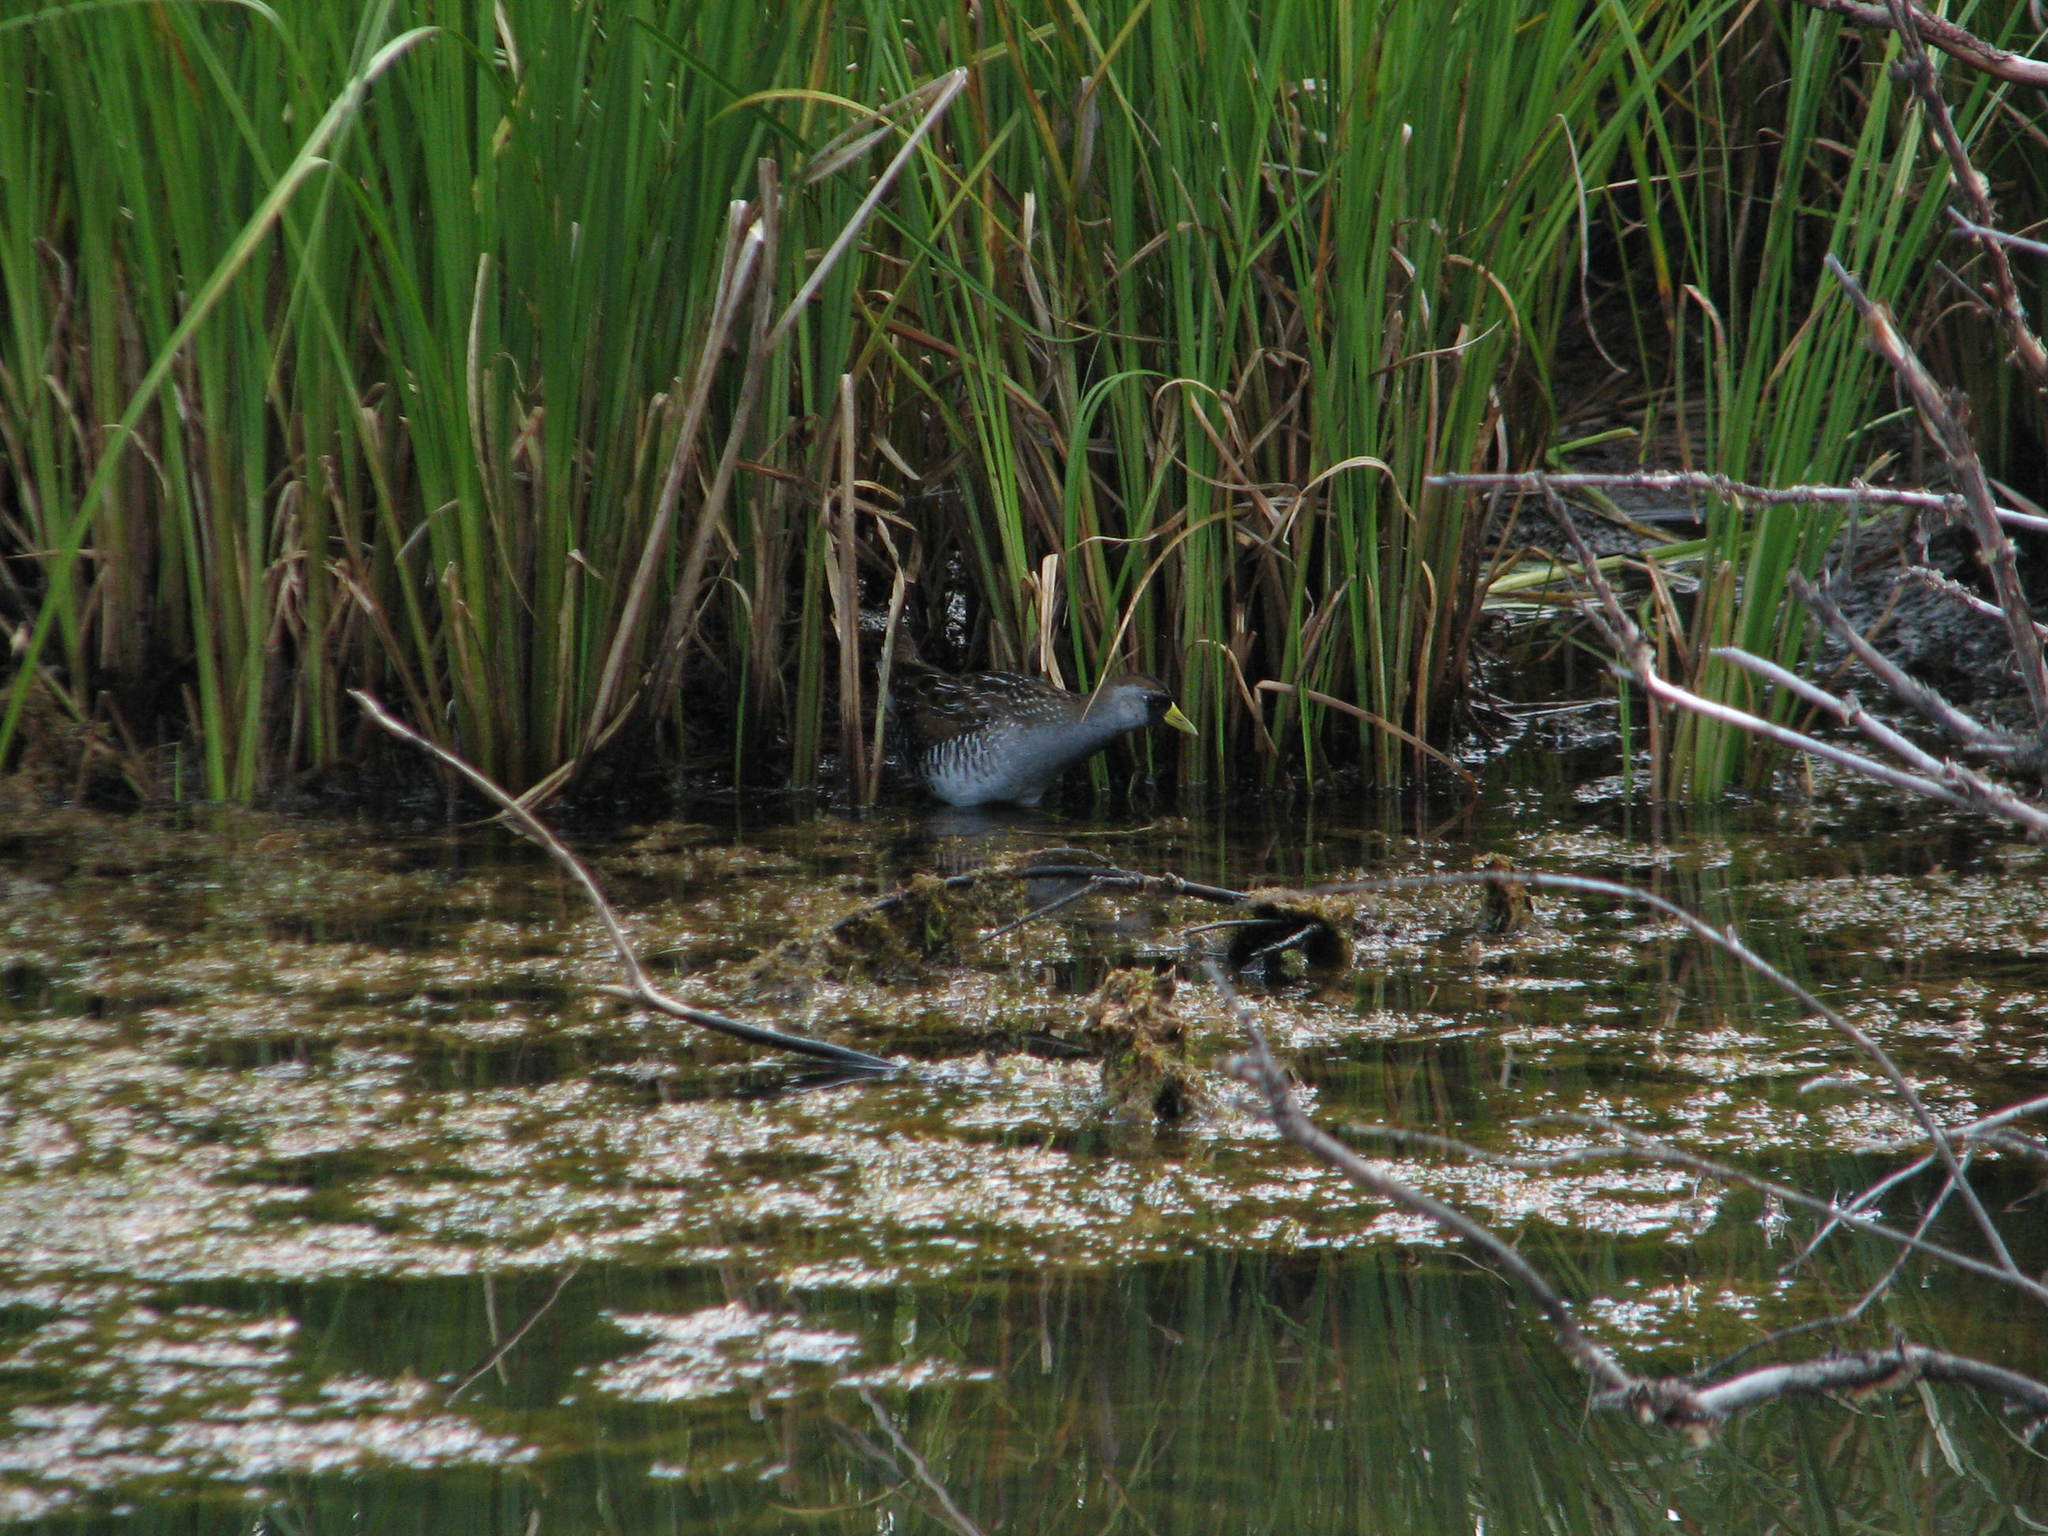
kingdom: Animalia
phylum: Chordata
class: Aves
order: Gruiformes
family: Rallidae
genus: Porzana
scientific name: Porzana carolina
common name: Sora
